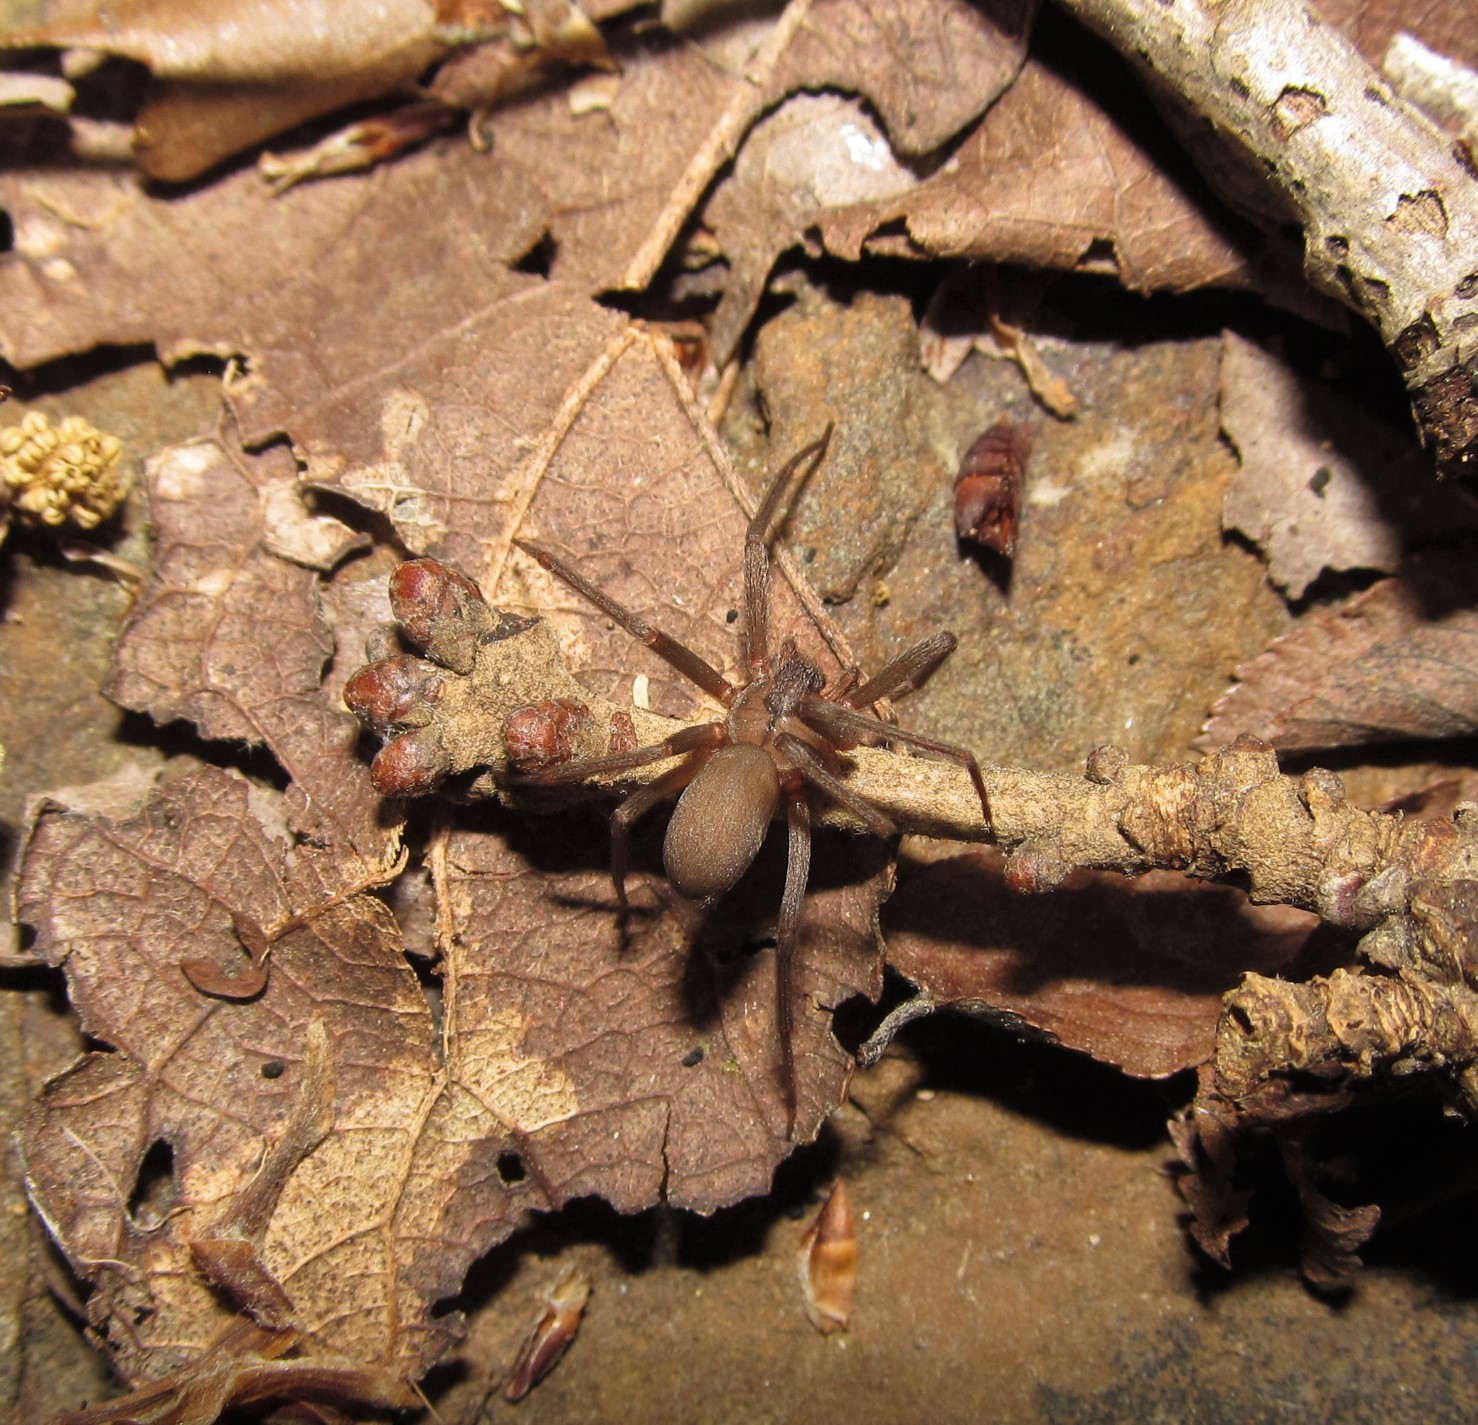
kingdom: Animalia
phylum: Arthropoda
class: Arachnida
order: Araneae
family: Sicariidae
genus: Loxosceles
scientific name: Loxosceles reclusa
